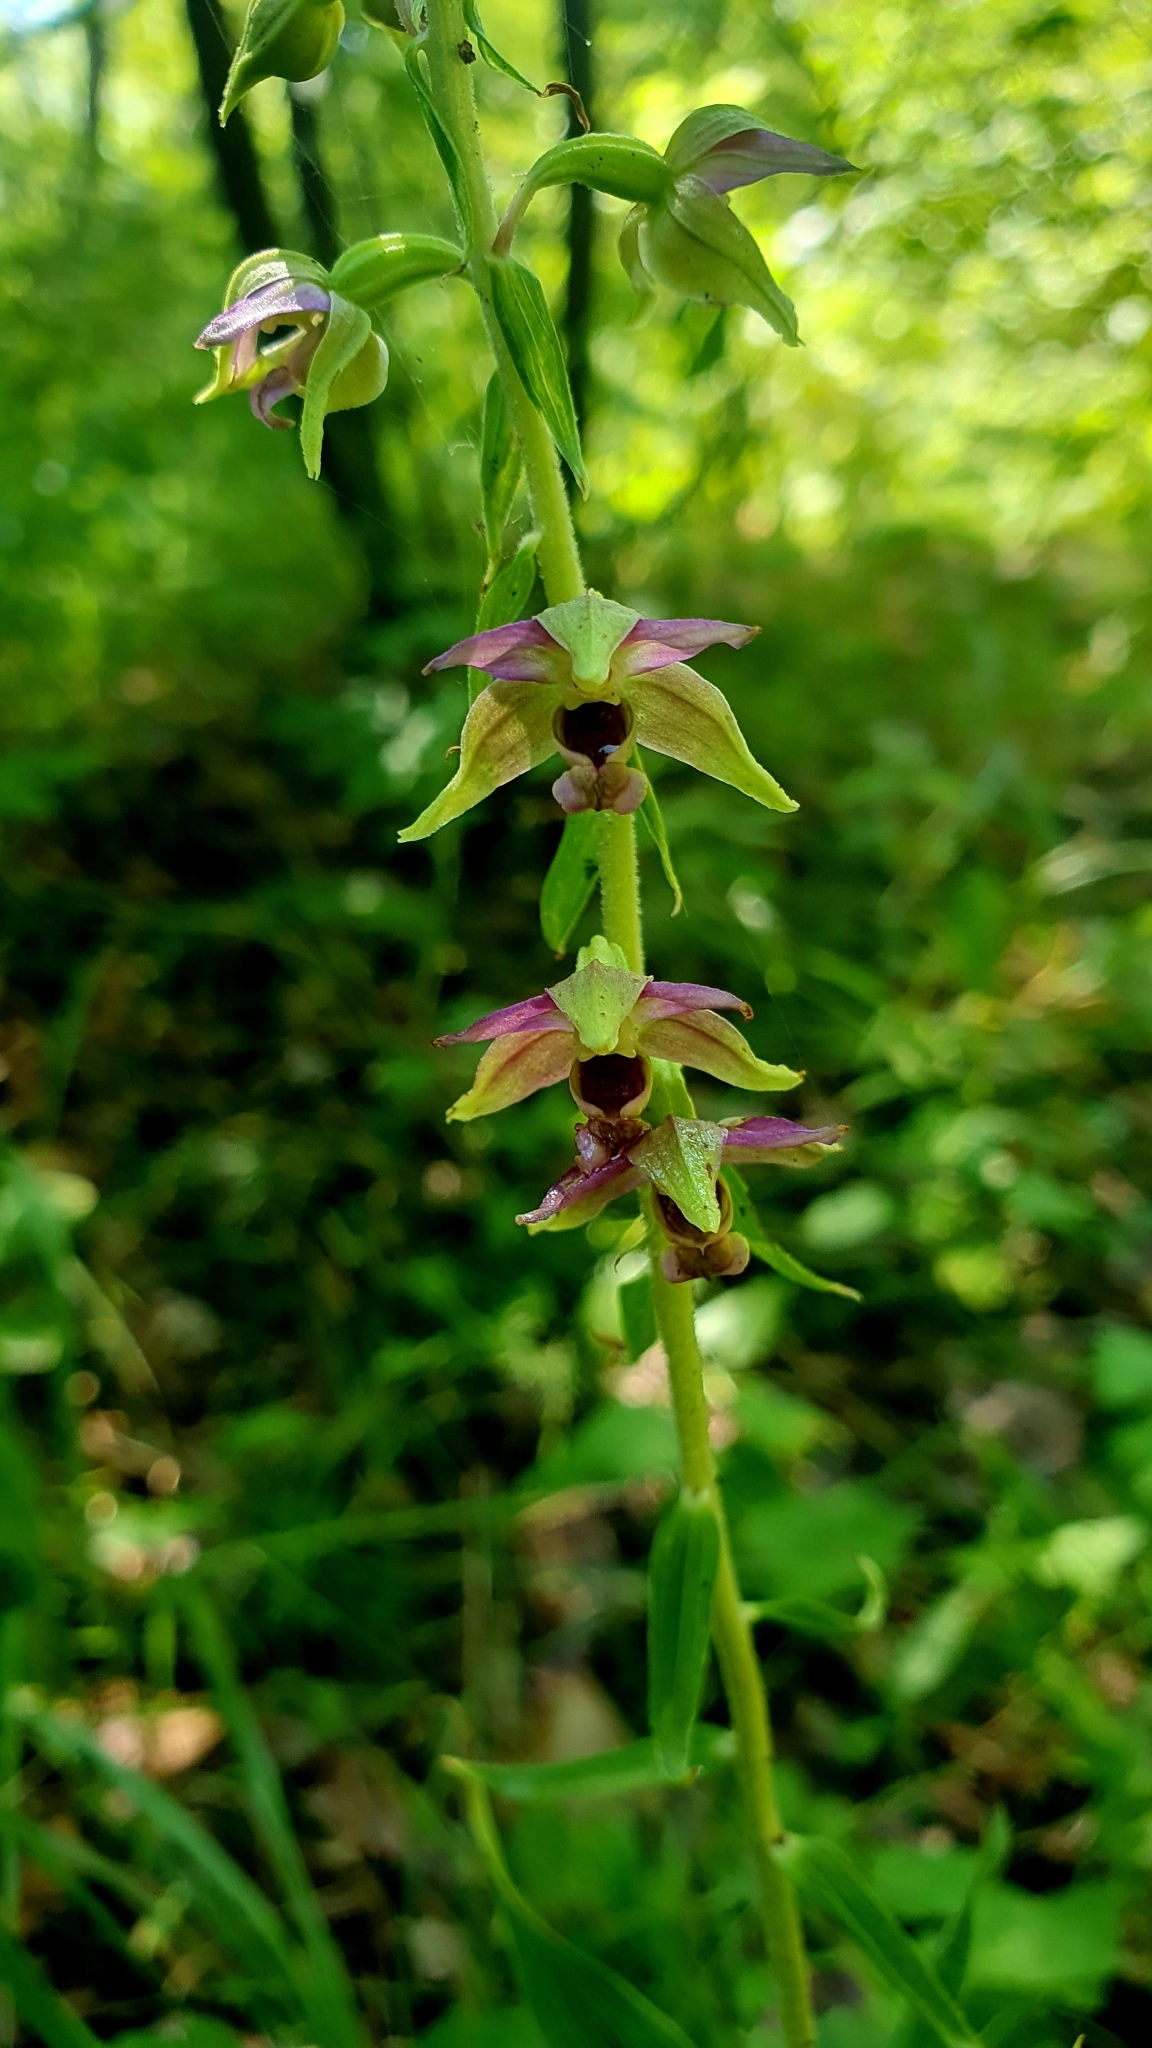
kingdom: Plantae
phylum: Tracheophyta
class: Liliopsida
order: Asparagales
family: Orchidaceae
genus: Epipactis
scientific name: Epipactis helleborine
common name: Broad-leaved helleborine
